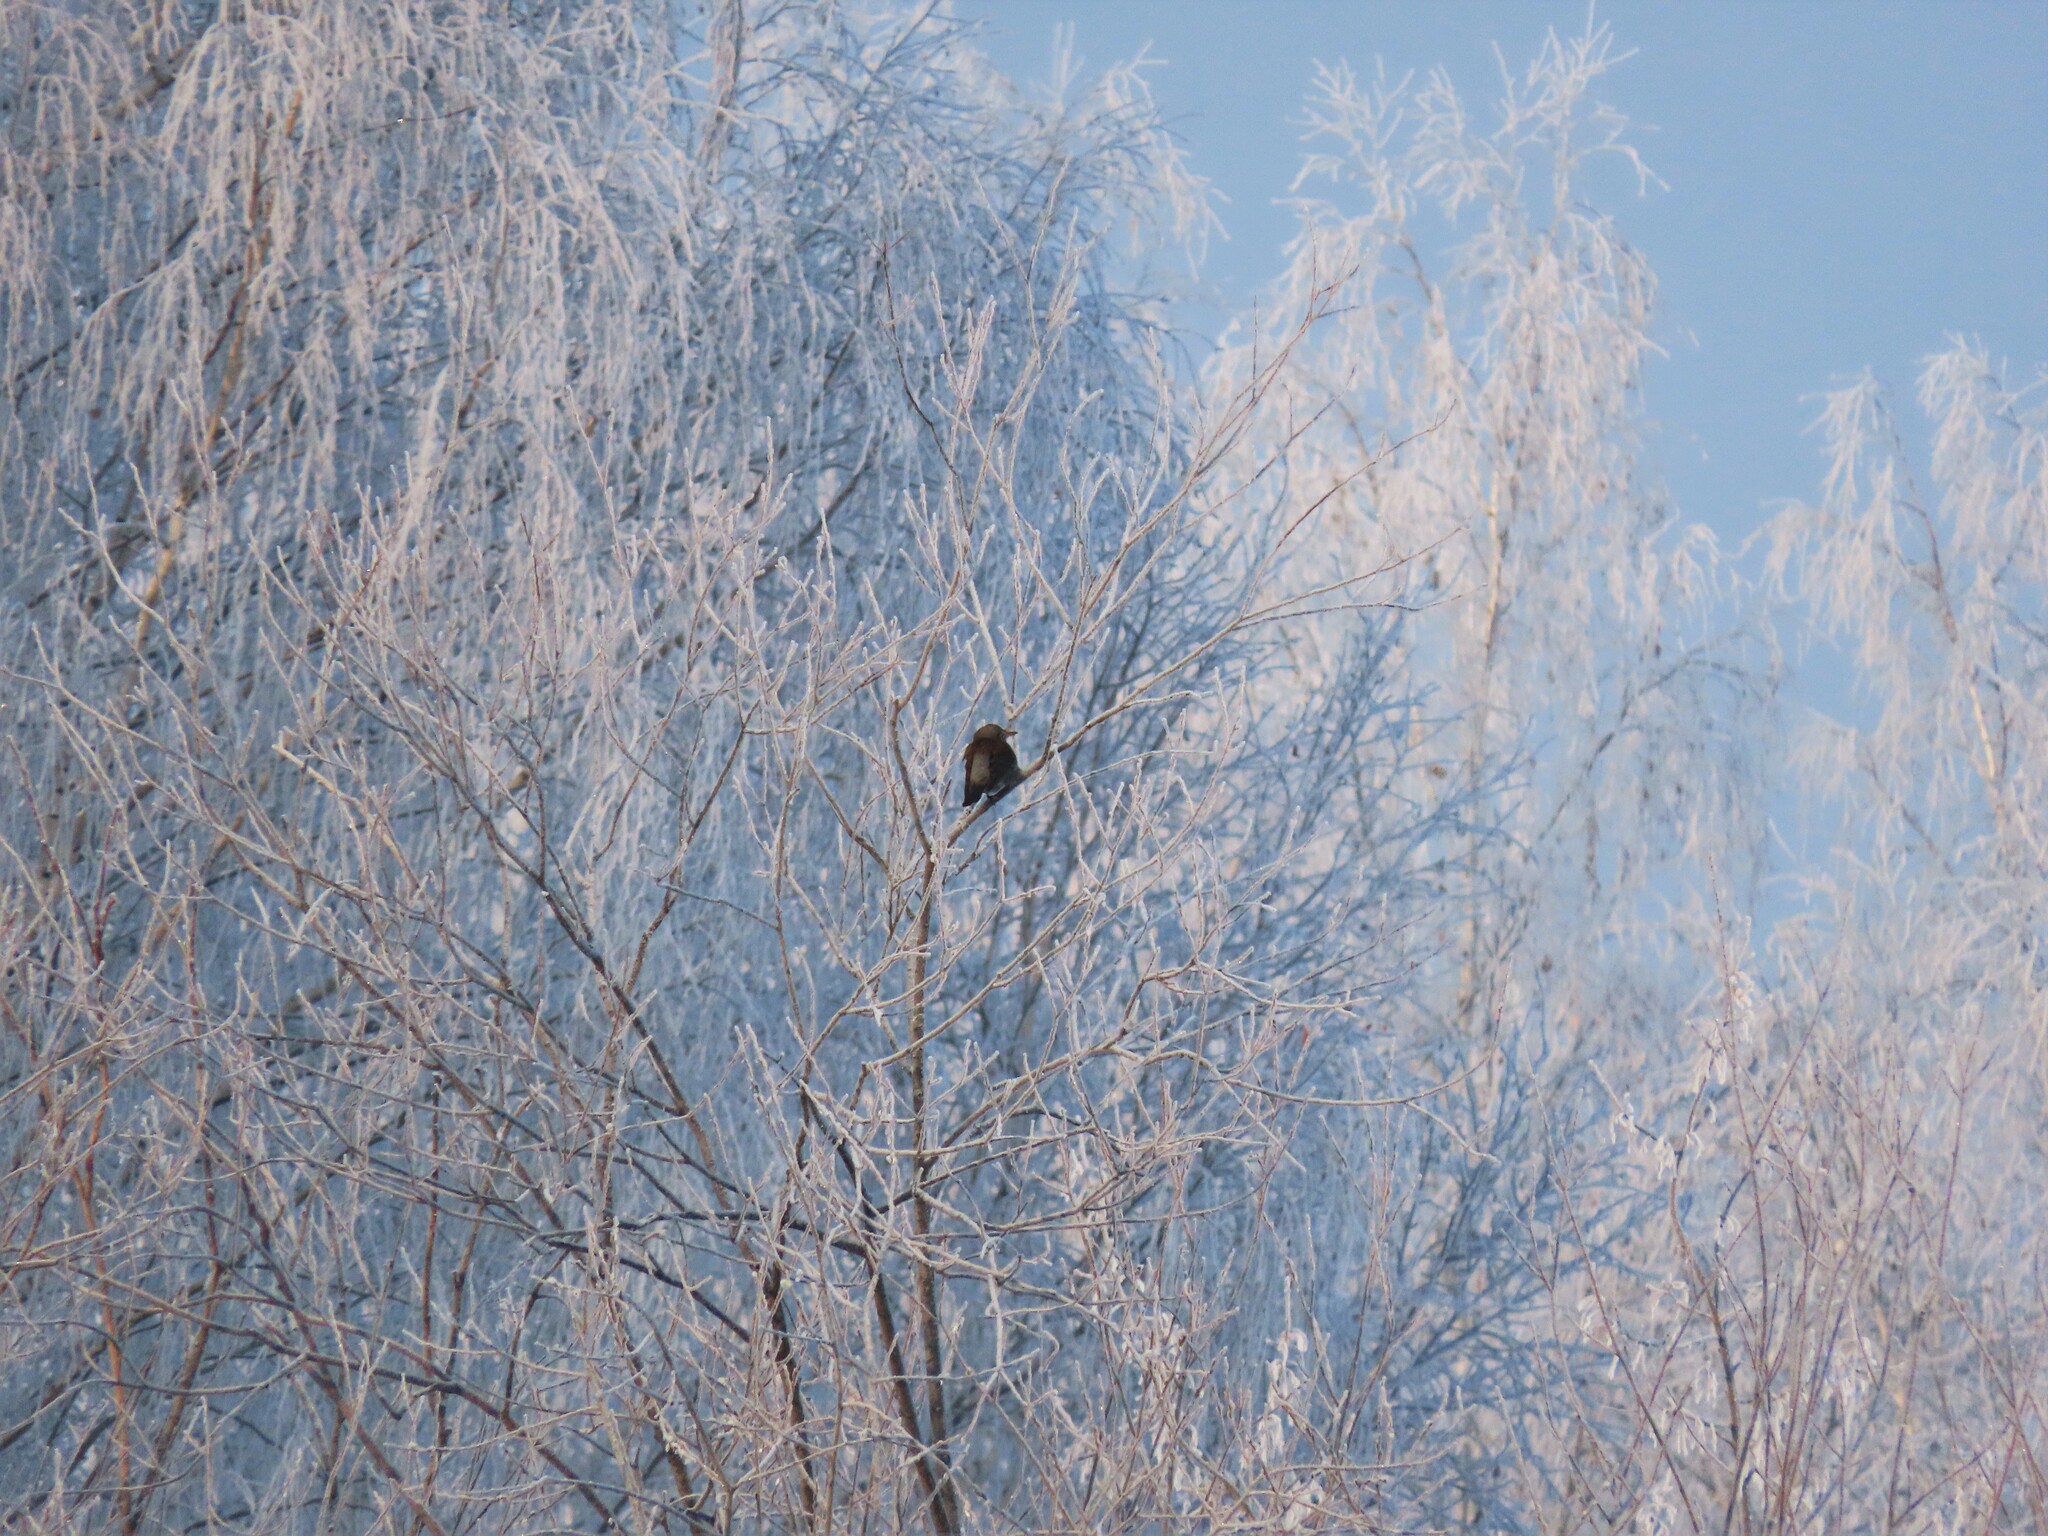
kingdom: Animalia
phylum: Chordata
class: Aves
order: Passeriformes
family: Turdidae
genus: Turdus
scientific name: Turdus pilaris
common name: Fieldfare
